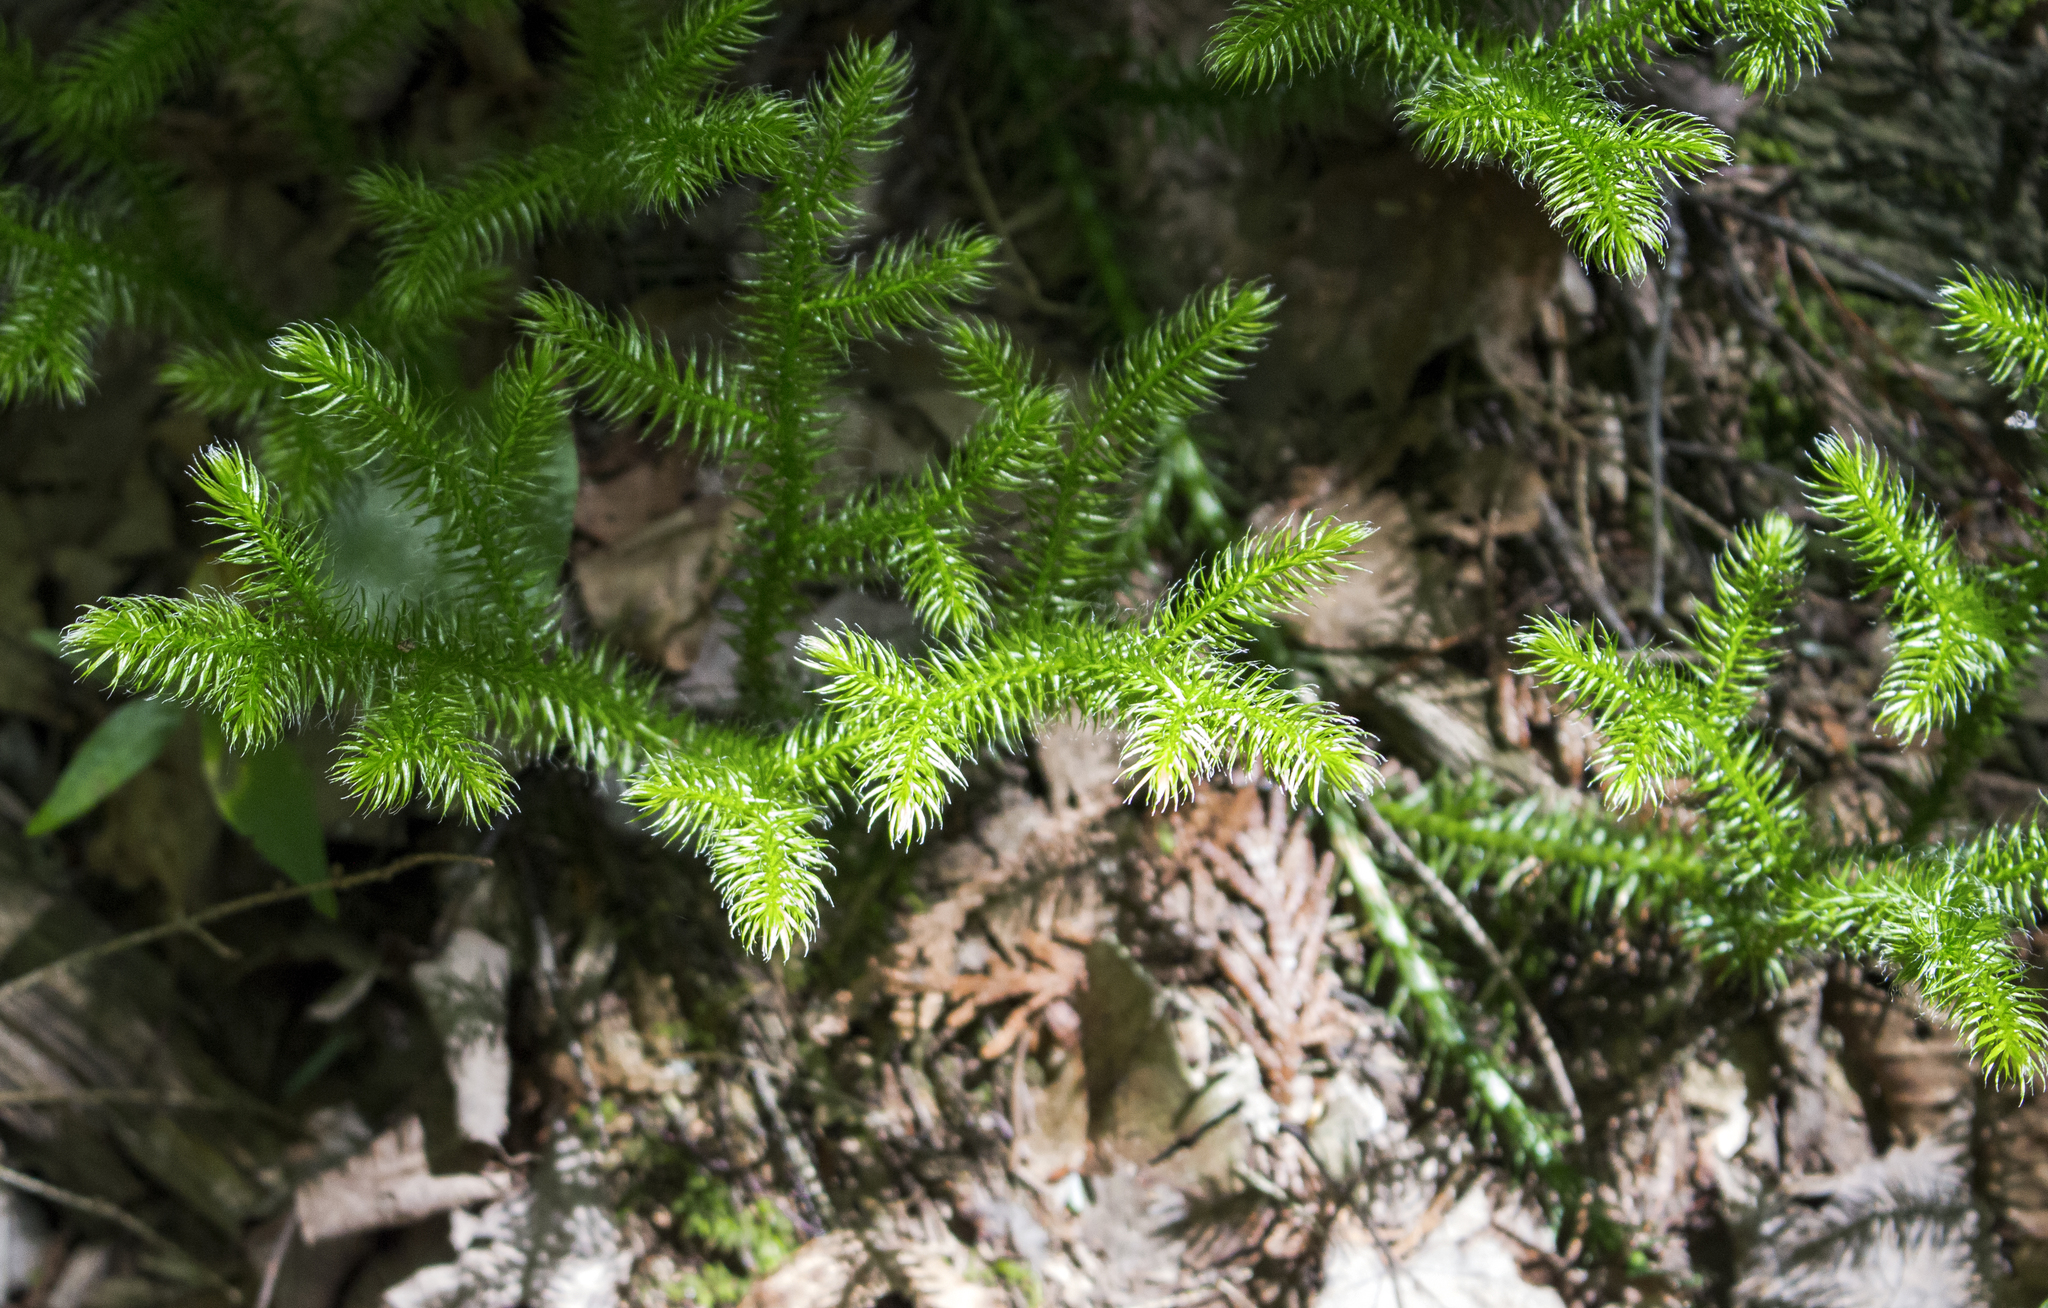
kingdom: Plantae
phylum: Tracheophyta
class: Lycopodiopsida
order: Lycopodiales
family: Lycopodiaceae
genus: Lycopodium
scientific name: Lycopodium clavatum
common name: Stag's-horn clubmoss
